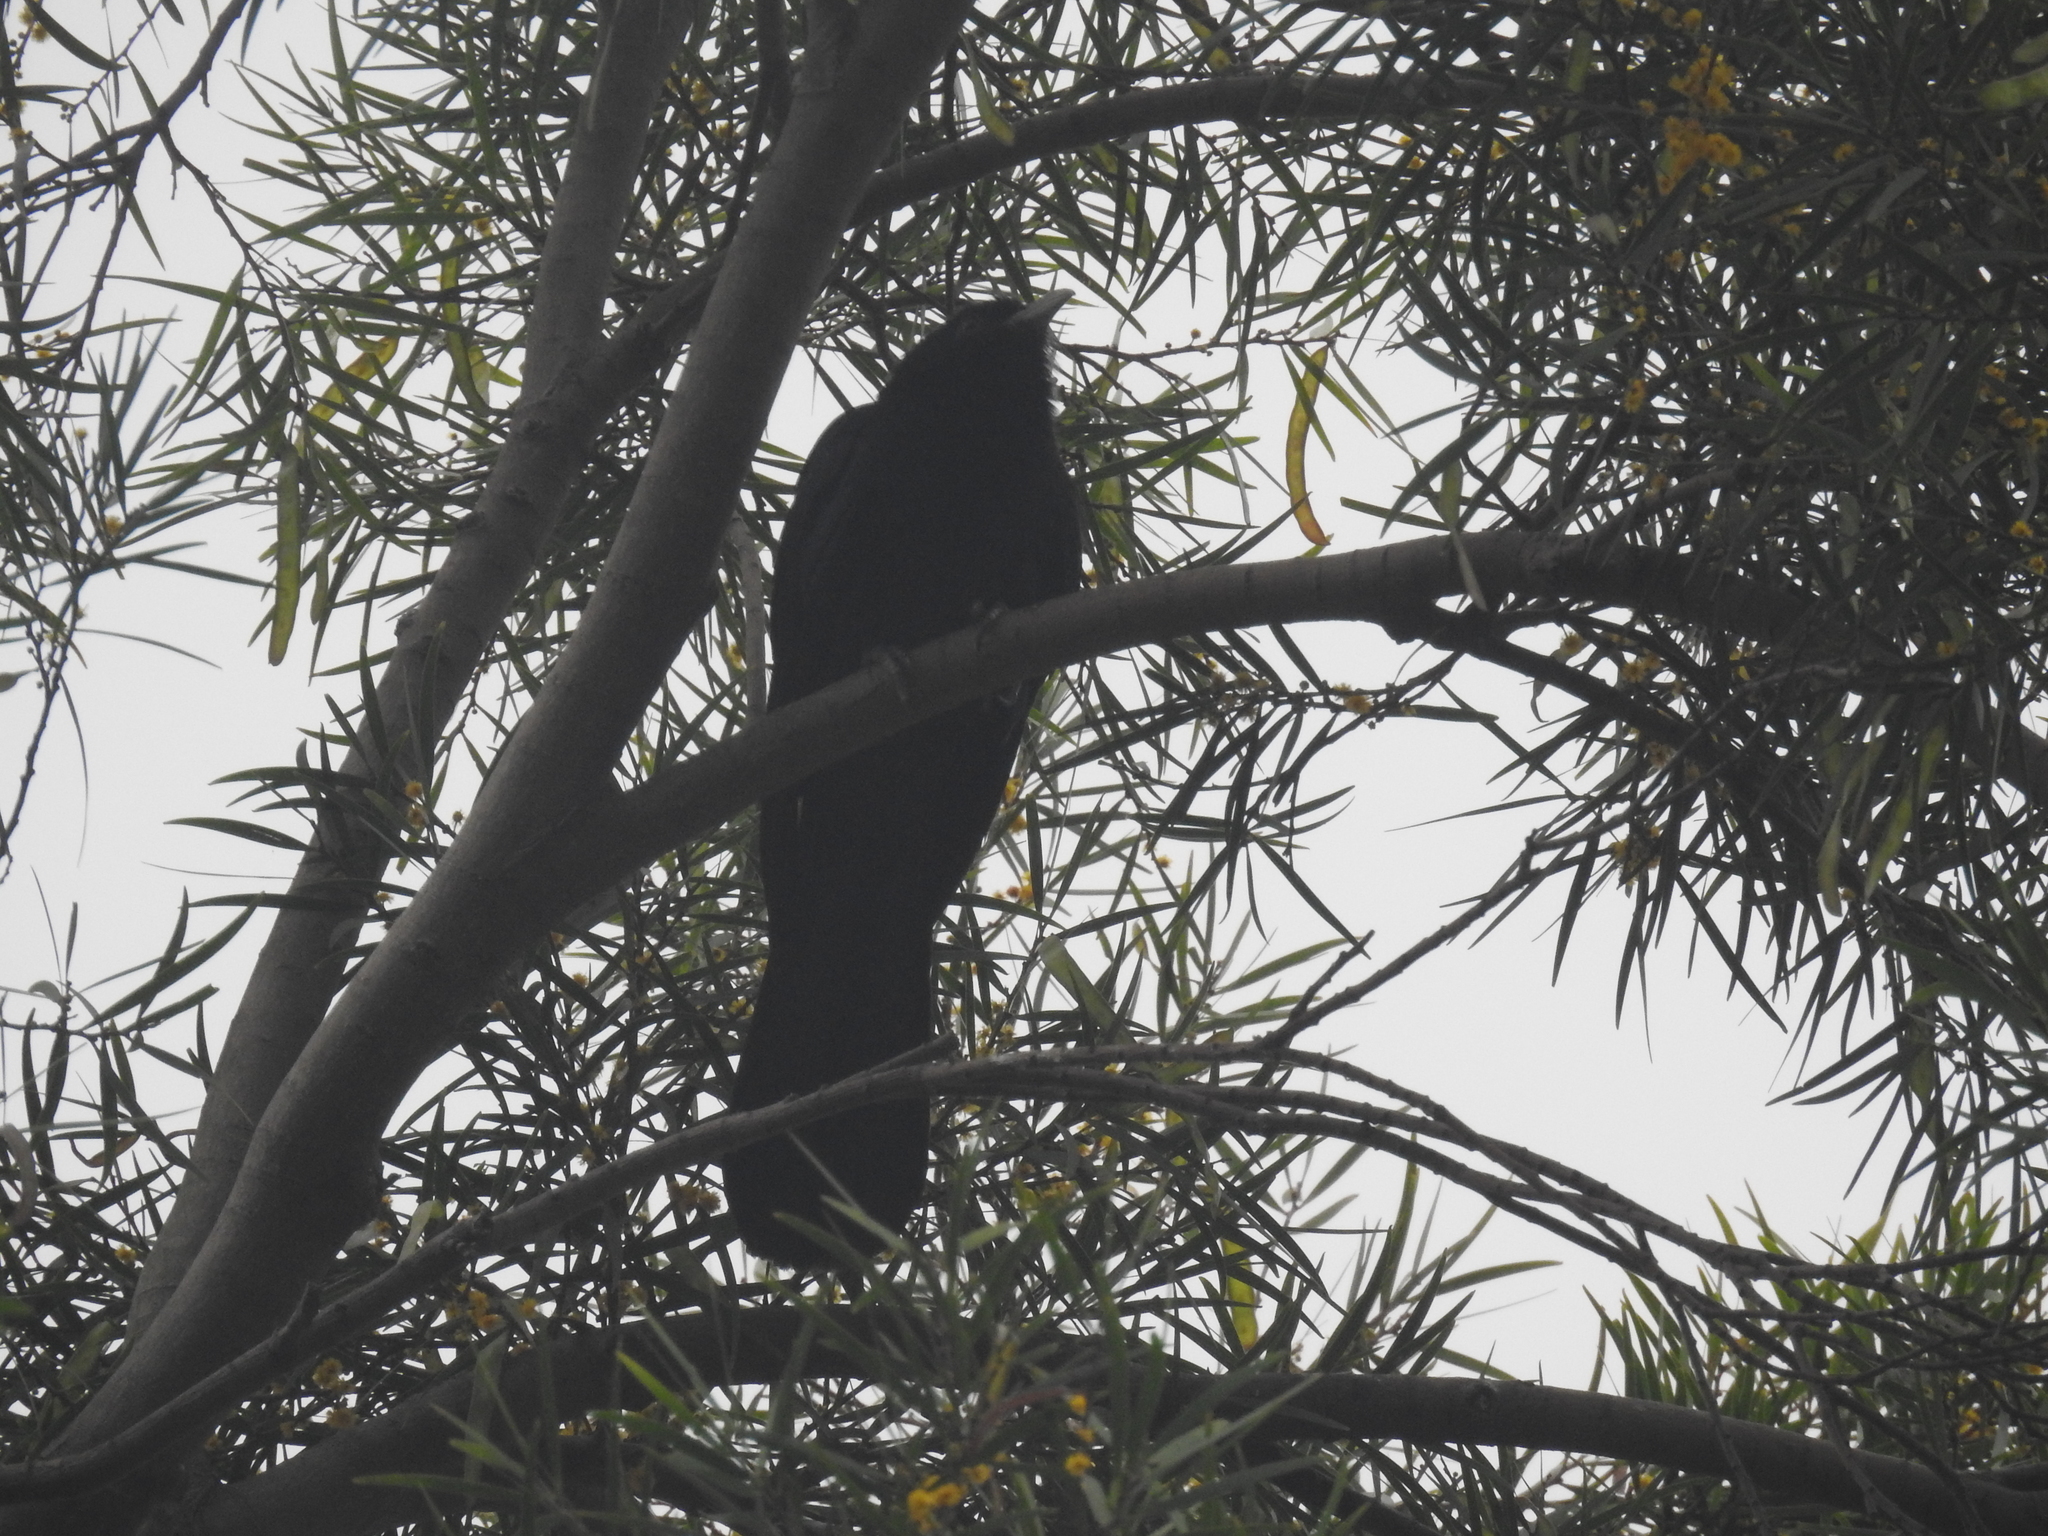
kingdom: Animalia
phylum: Chordata
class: Aves
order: Cuculiformes
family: Cuculidae
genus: Eudynamys
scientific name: Eudynamys scolopaceus
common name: Asian koel
